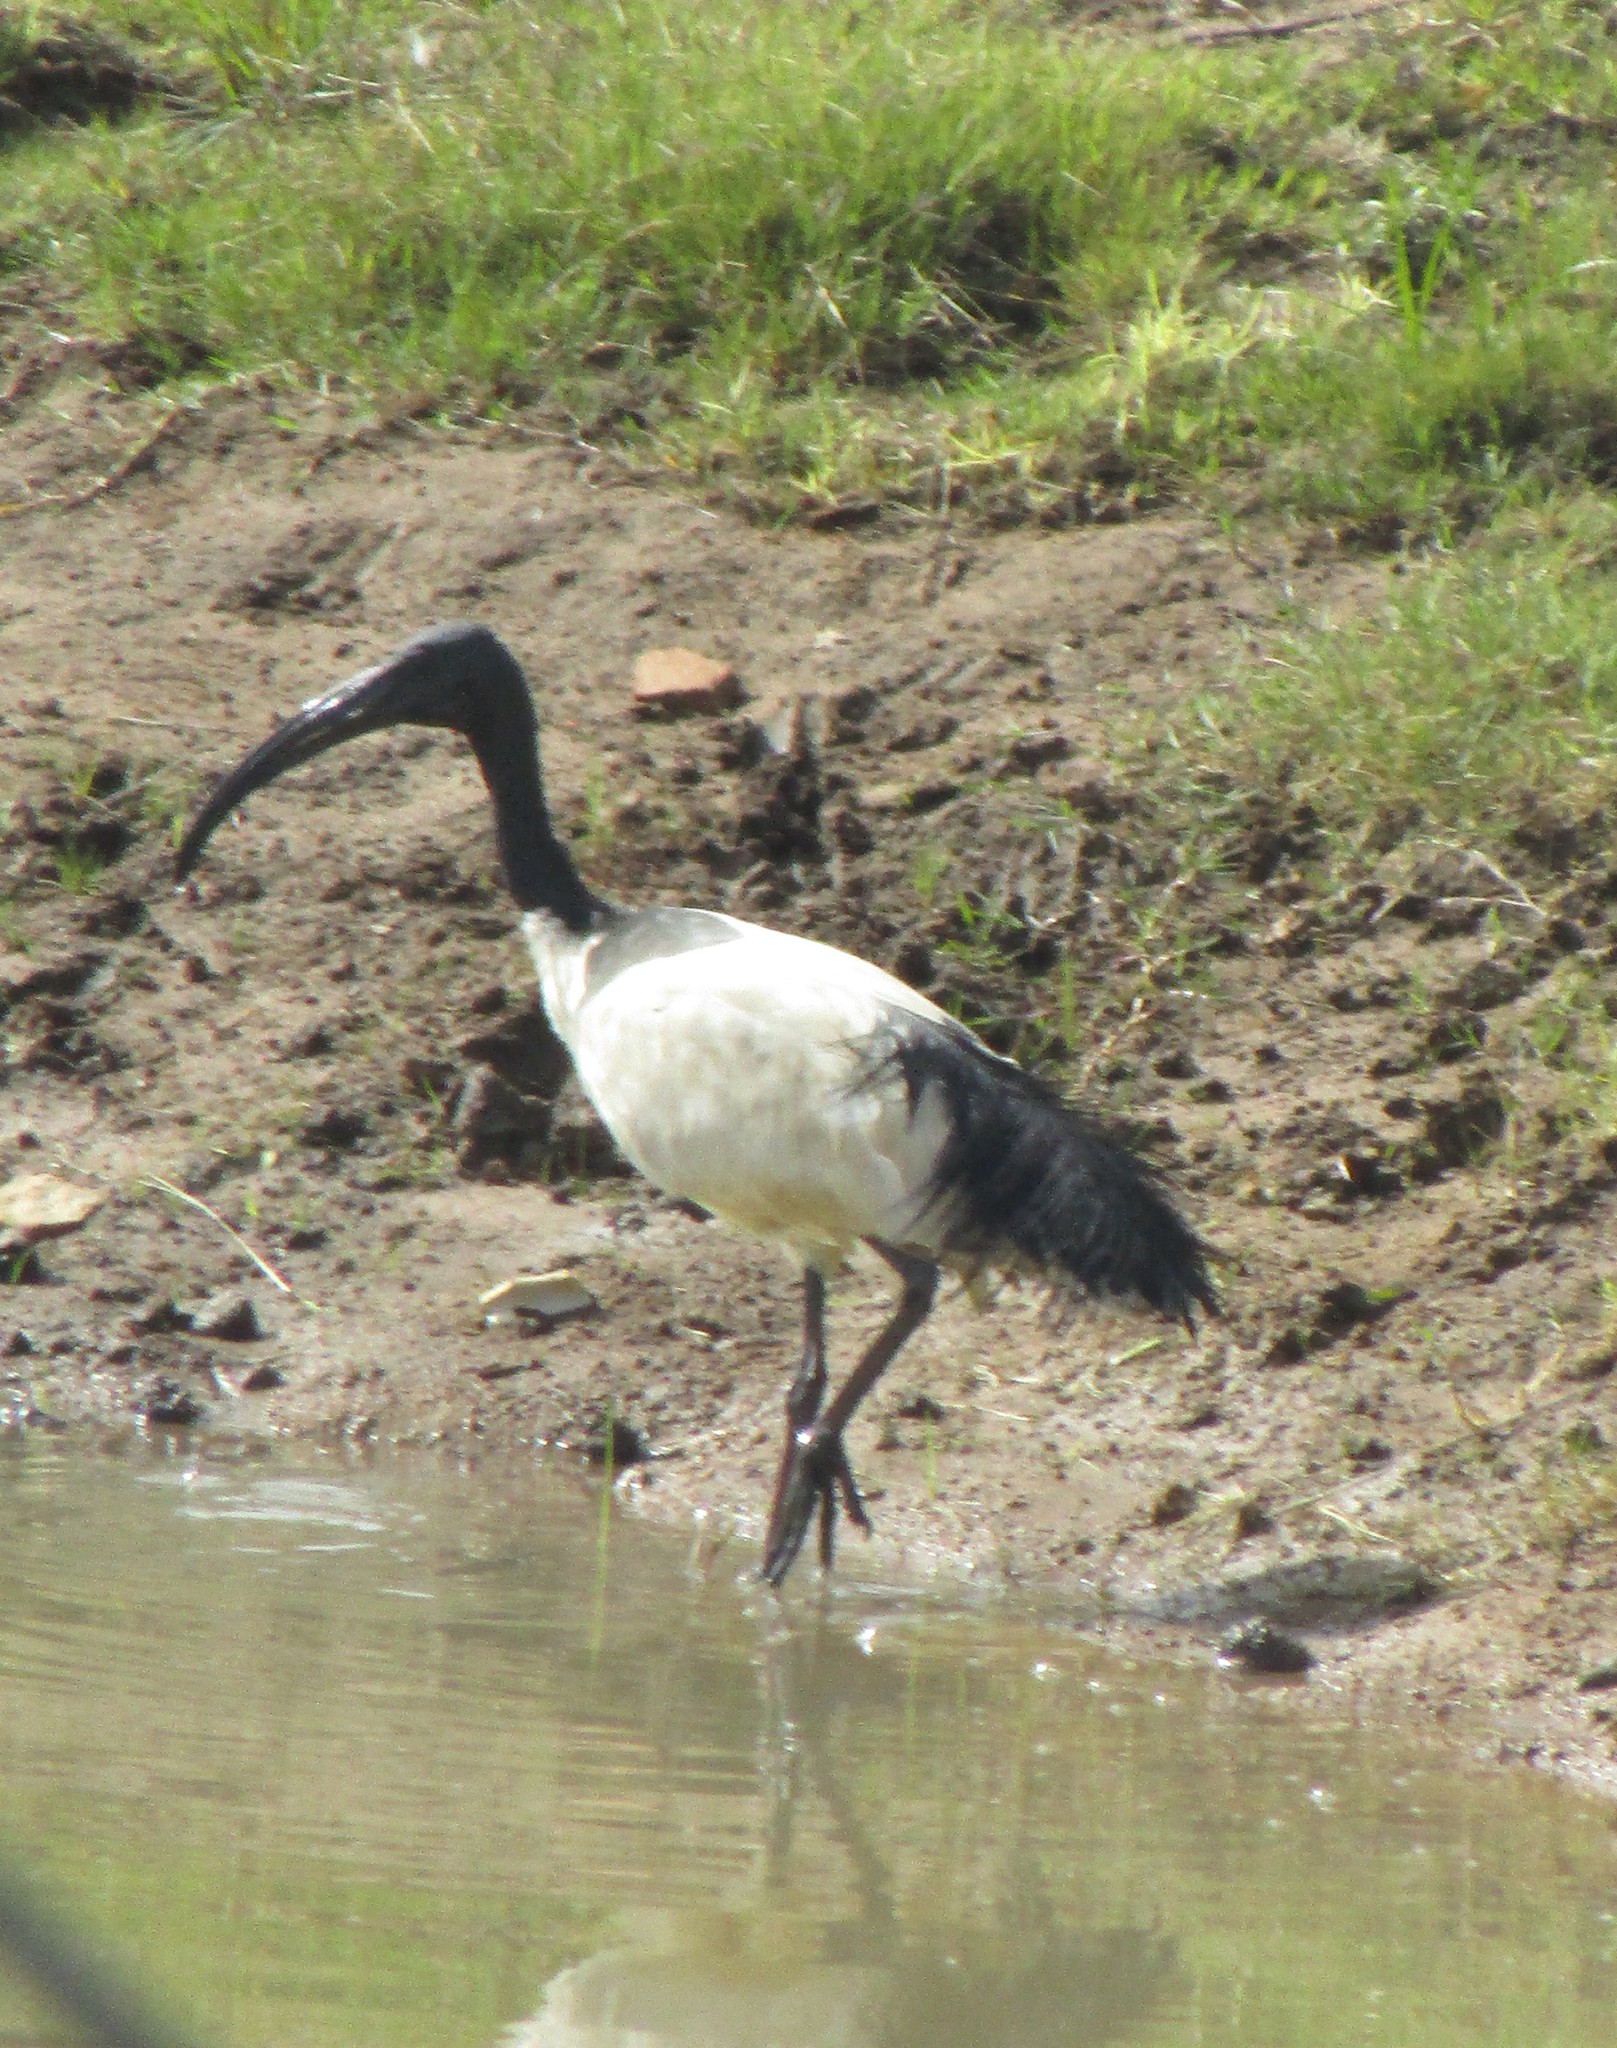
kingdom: Animalia
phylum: Chordata
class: Aves
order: Pelecaniformes
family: Threskiornithidae
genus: Threskiornis
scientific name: Threskiornis aethiopicus
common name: Sacred ibis
